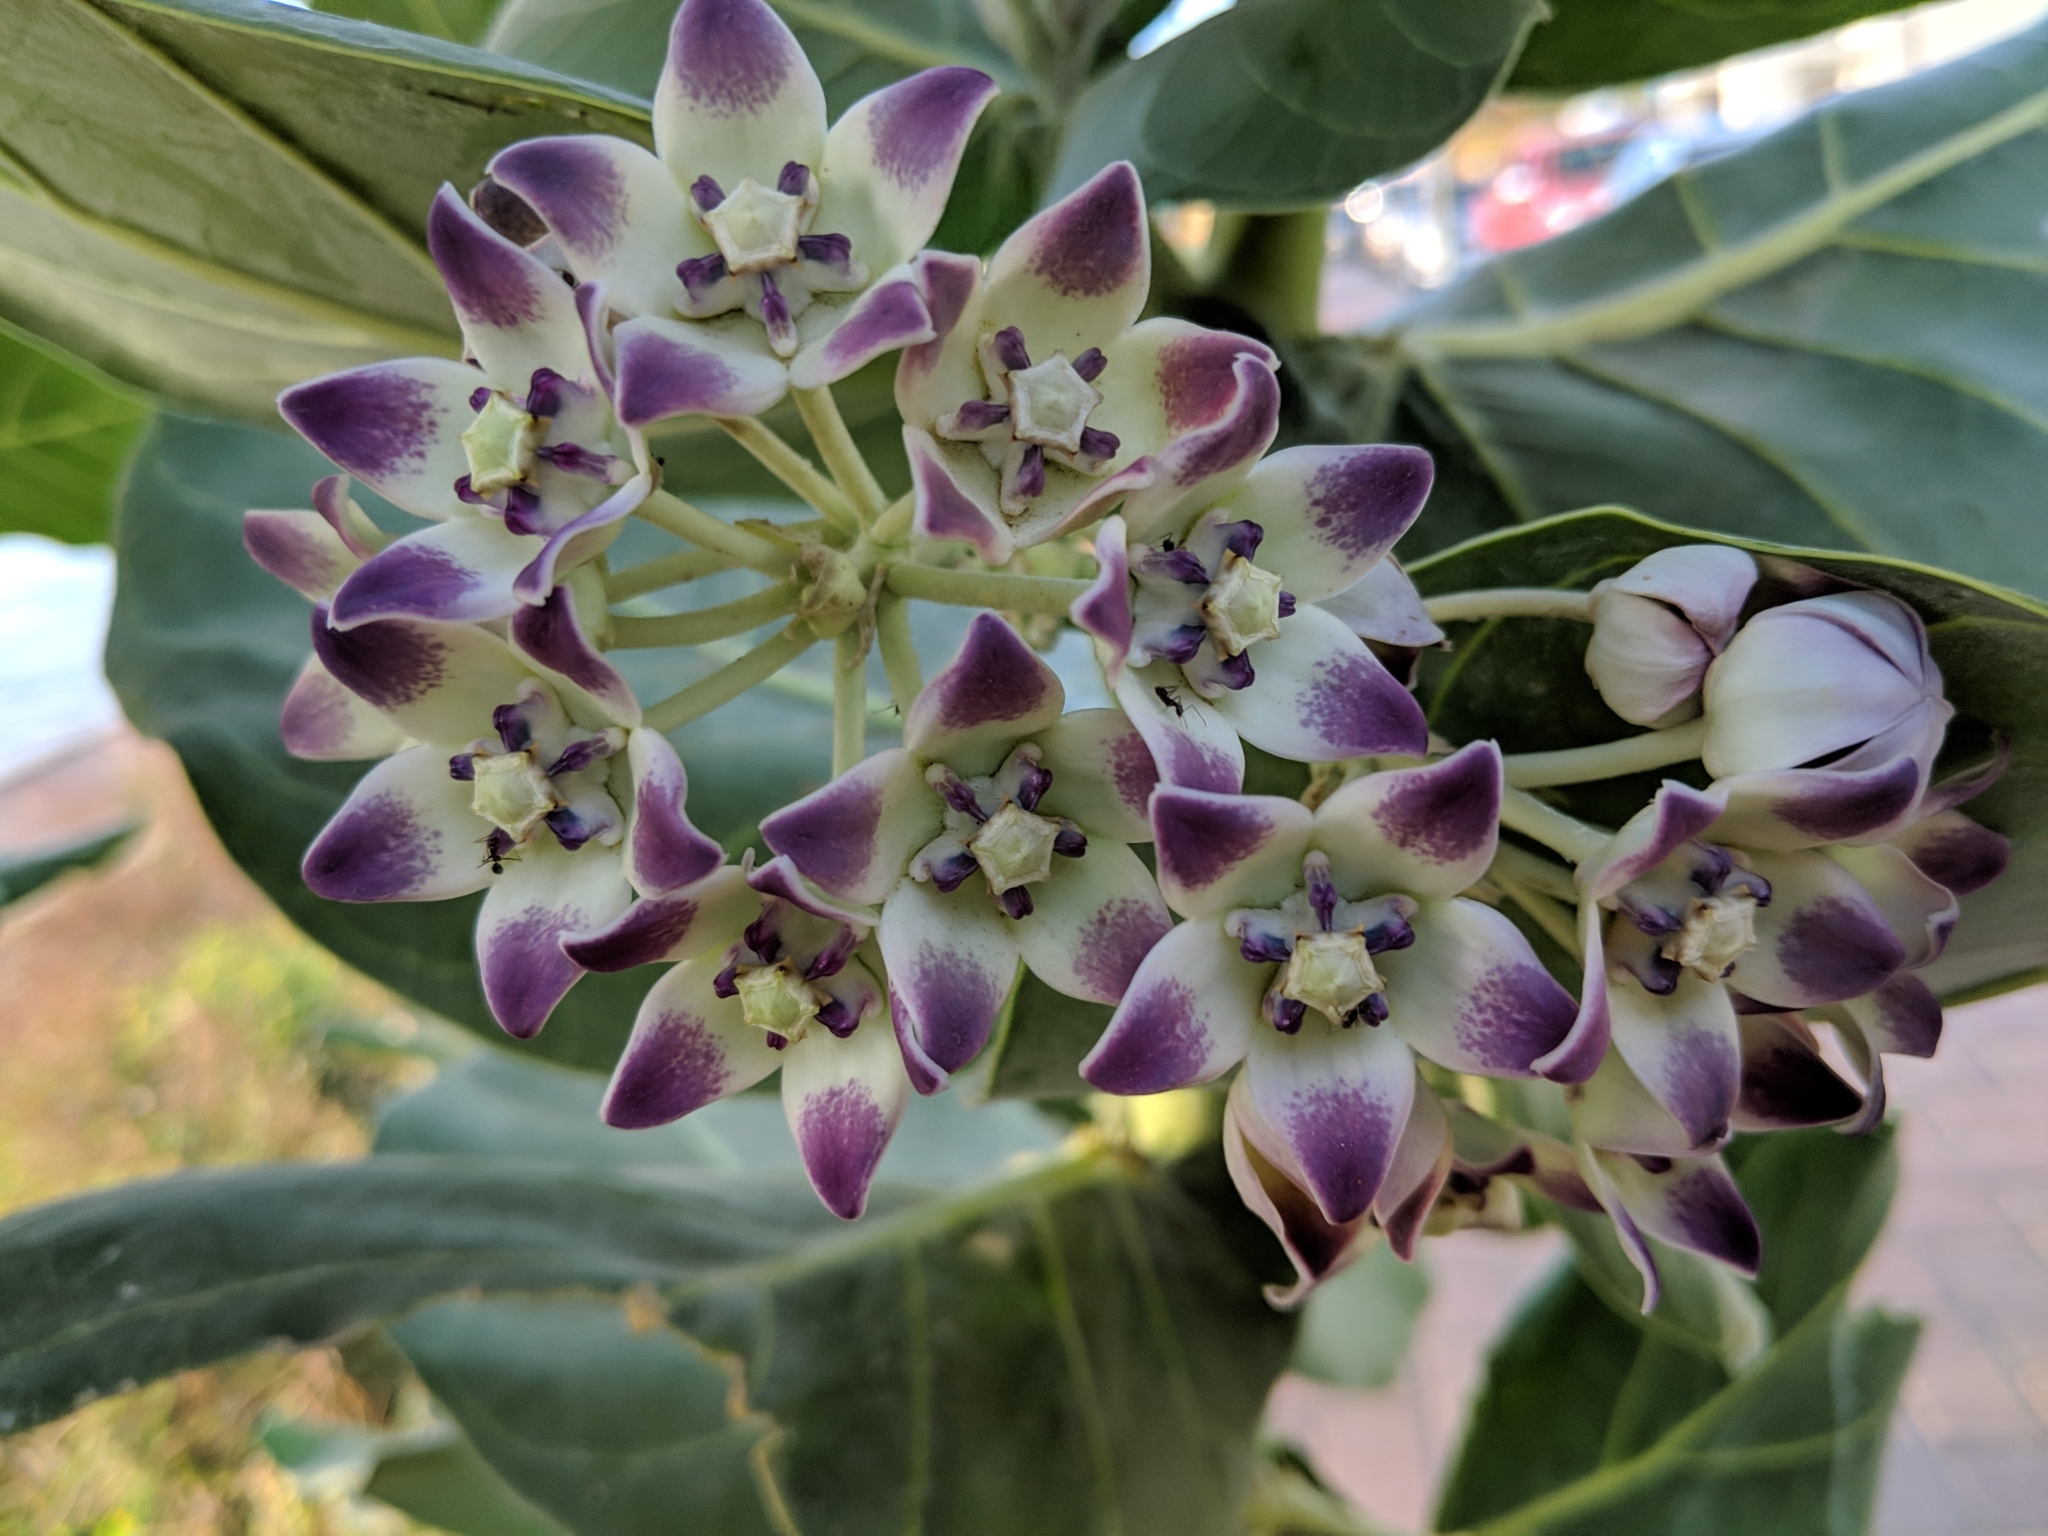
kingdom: Plantae
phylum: Tracheophyta
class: Magnoliopsida
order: Gentianales
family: Apocynaceae
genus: Calotropis
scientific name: Calotropis procera
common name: Roostertree
